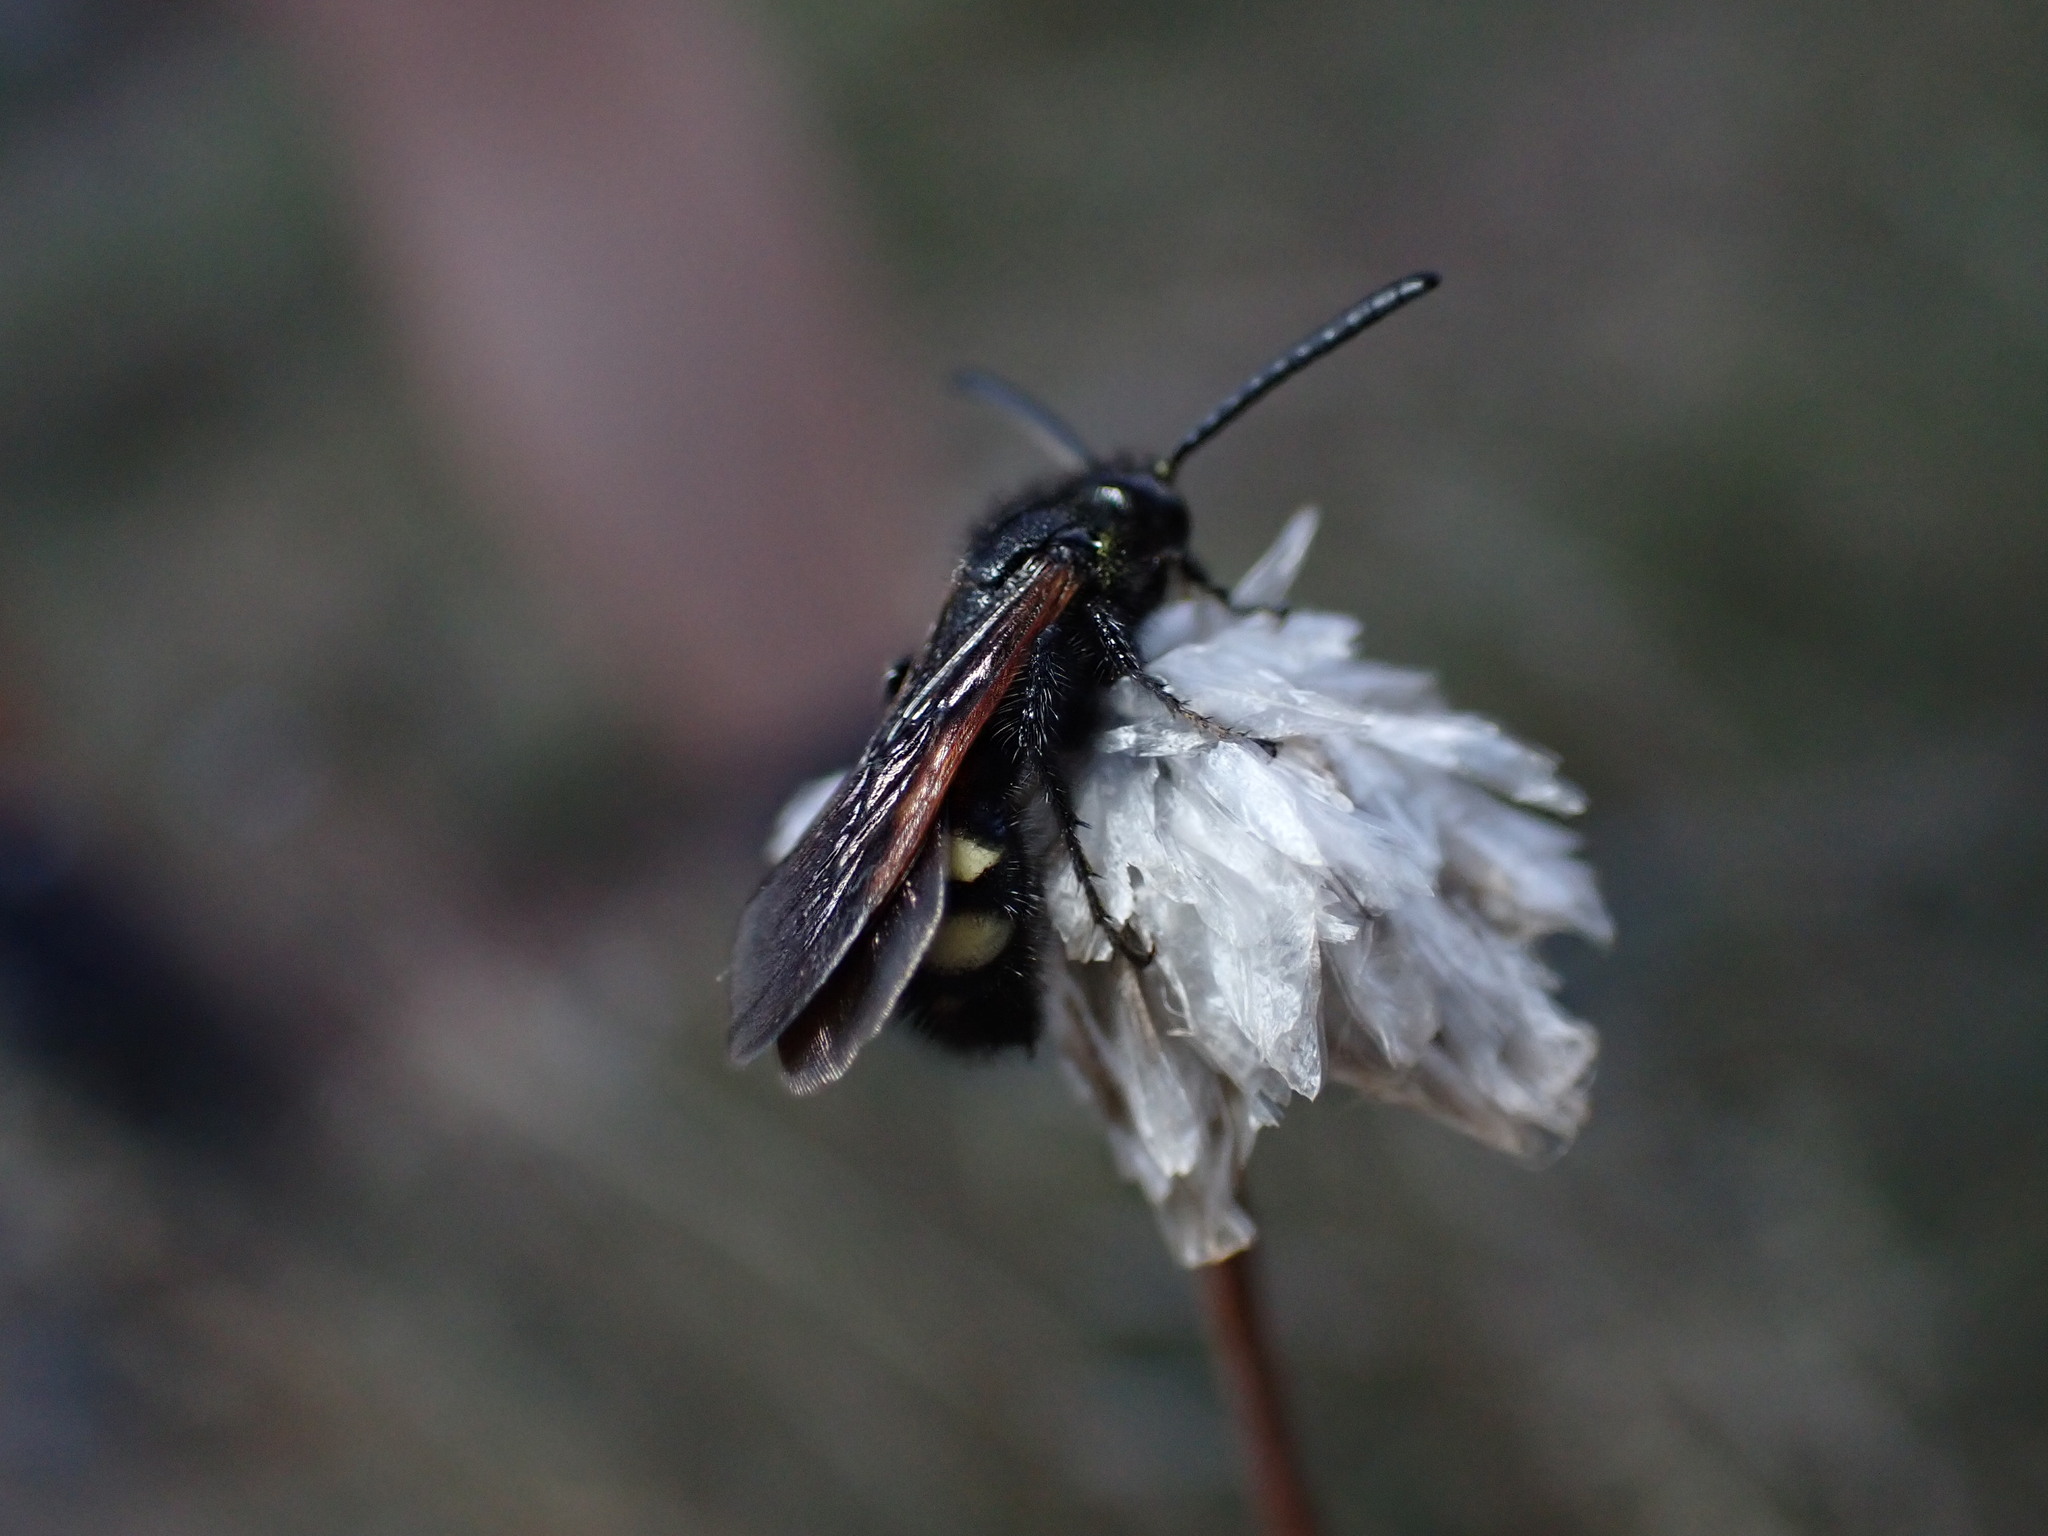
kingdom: Animalia
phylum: Arthropoda
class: Insecta
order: Hymenoptera
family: Vespidae
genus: Vespa
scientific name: Vespa sexmaculata
